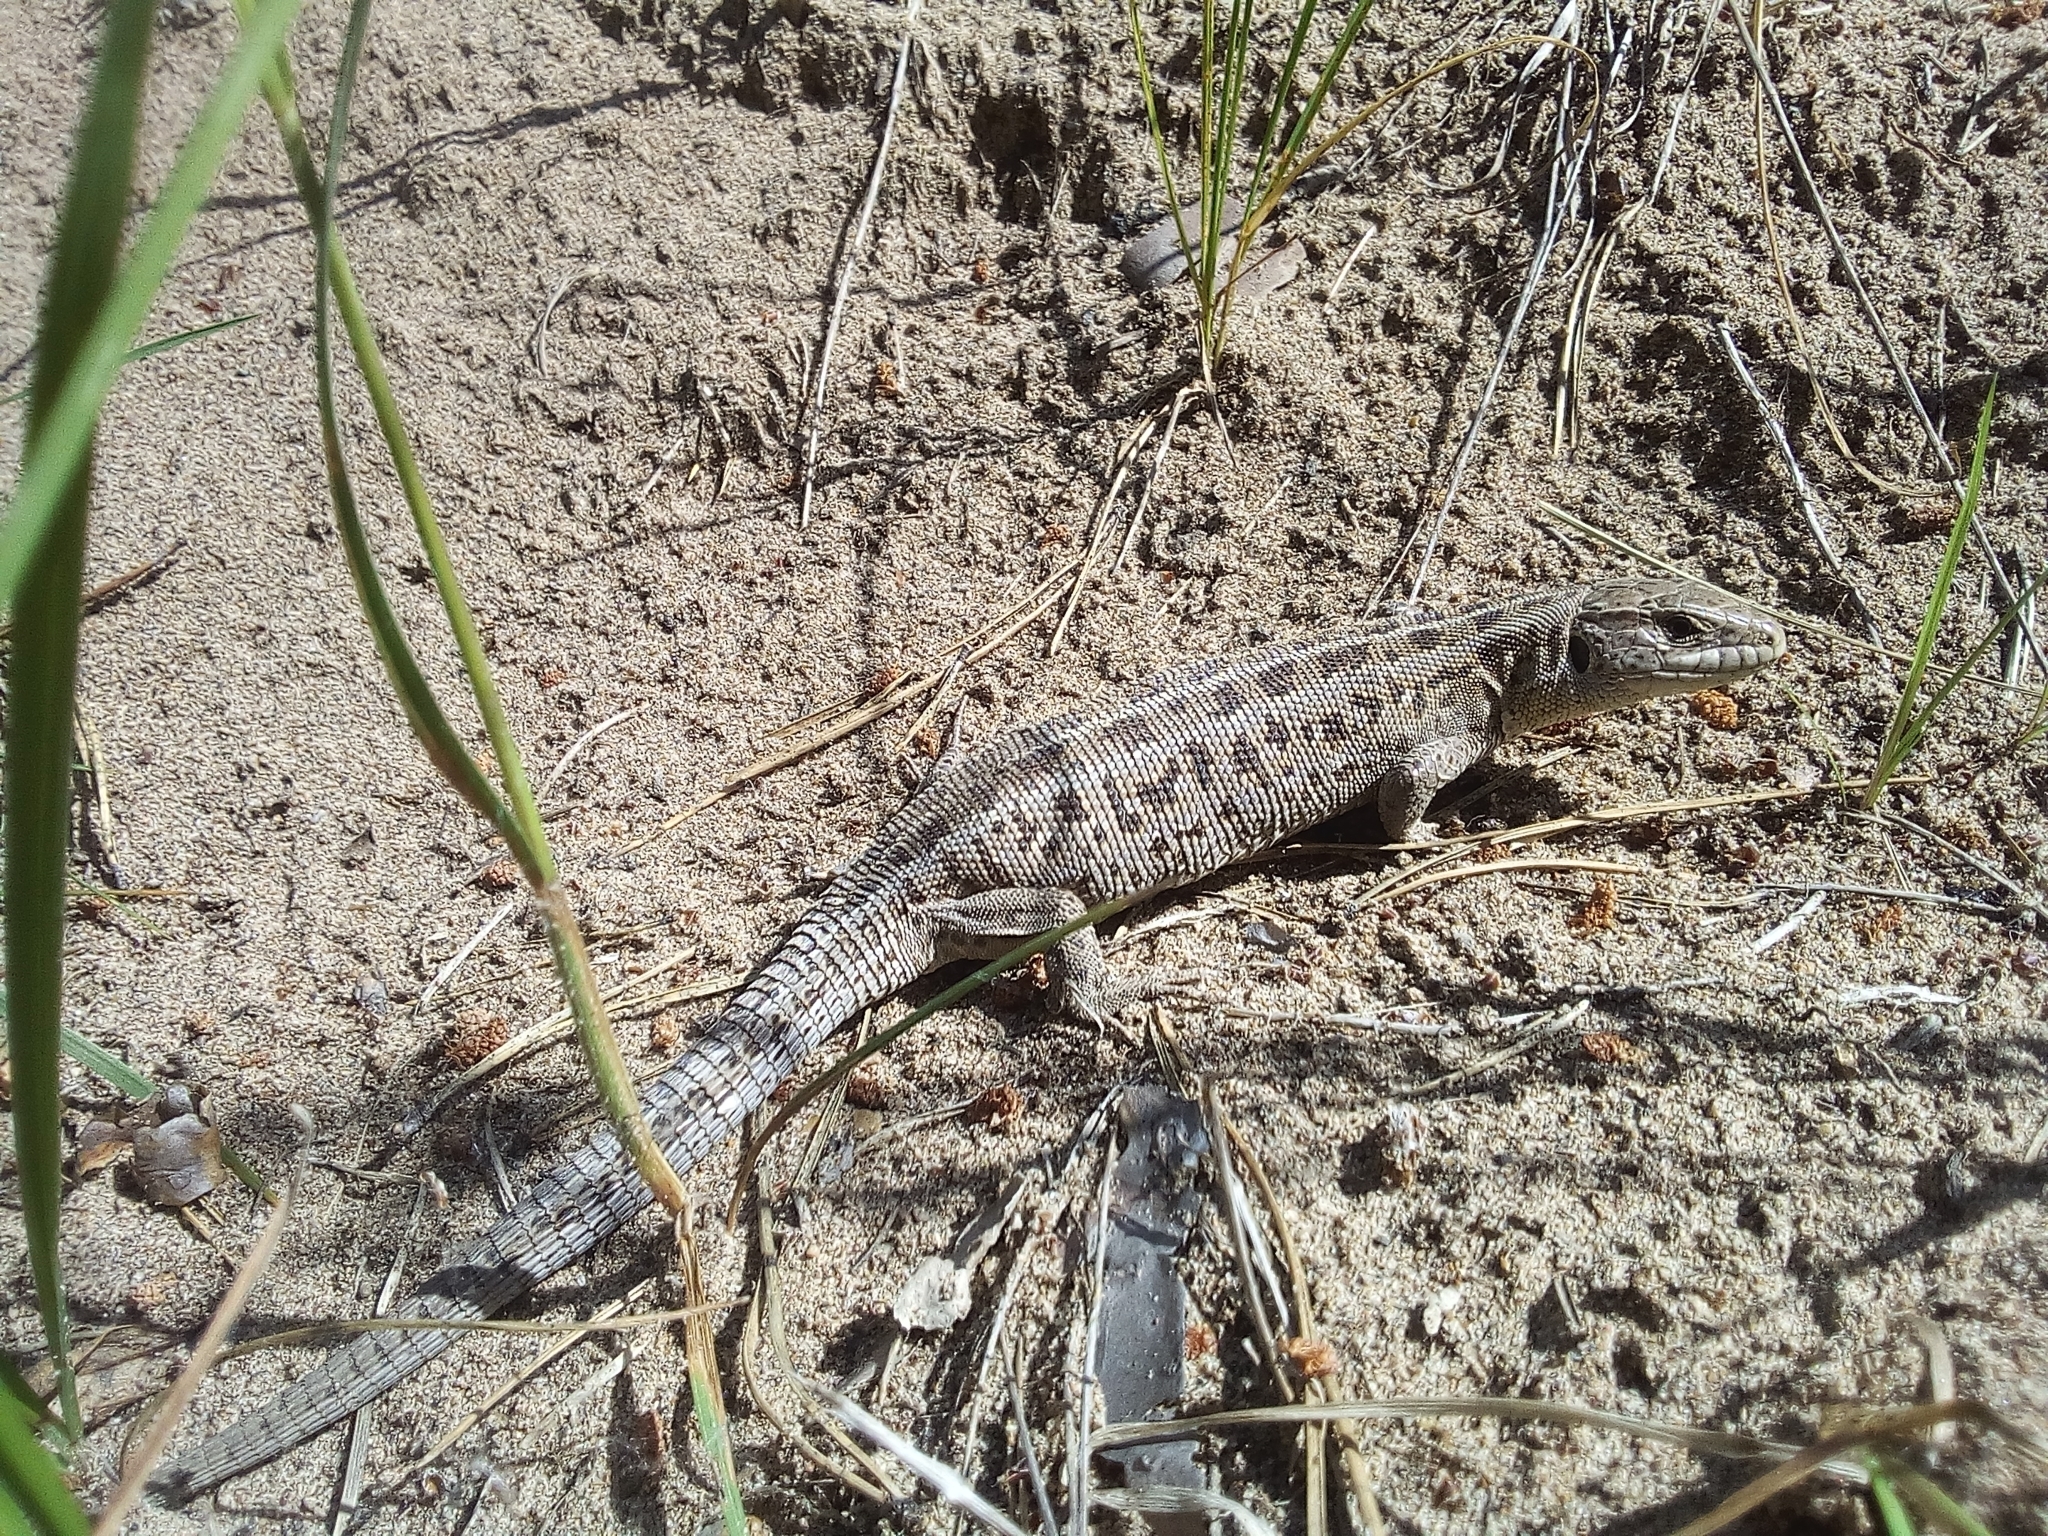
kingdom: Animalia
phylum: Chordata
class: Squamata
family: Lacertidae
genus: Lacerta
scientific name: Lacerta agilis
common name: Sand lizard
